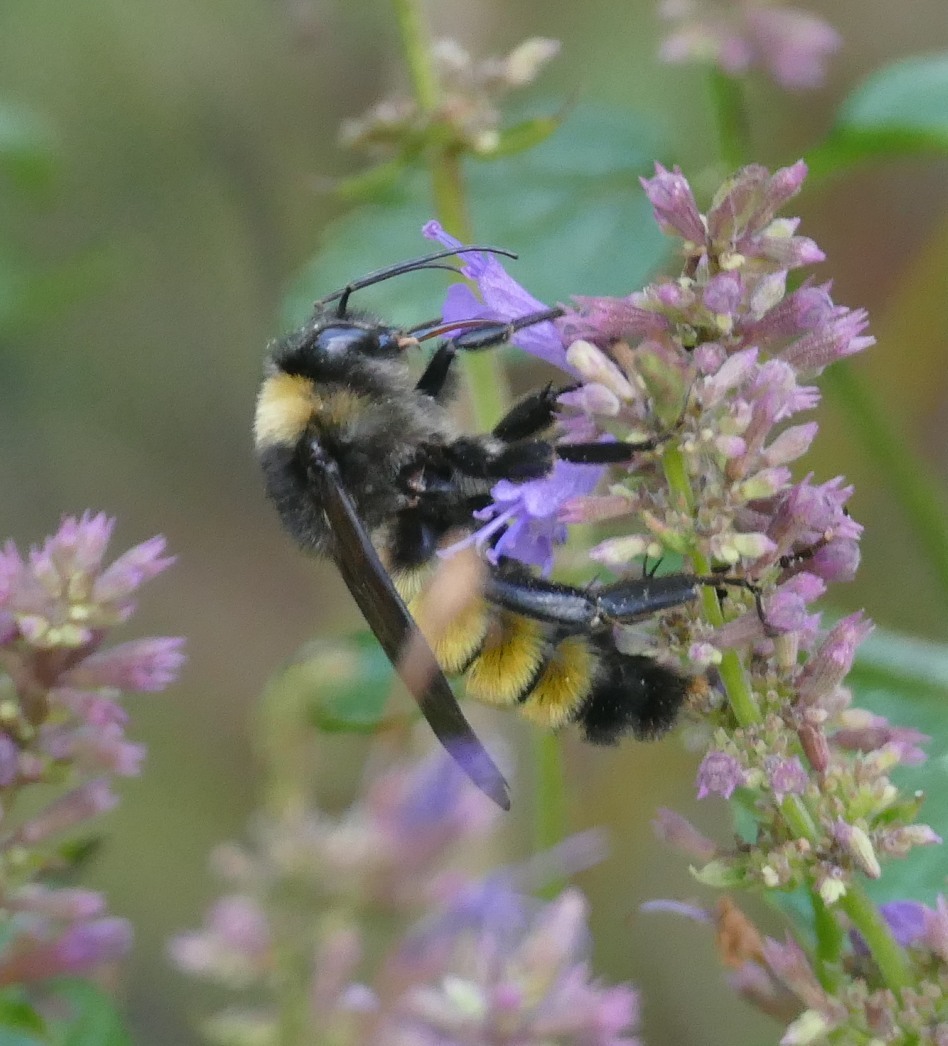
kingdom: Animalia
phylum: Arthropoda
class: Insecta
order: Hymenoptera
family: Apidae
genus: Bombus
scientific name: Bombus pensylvanicus
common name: Bumble bee
